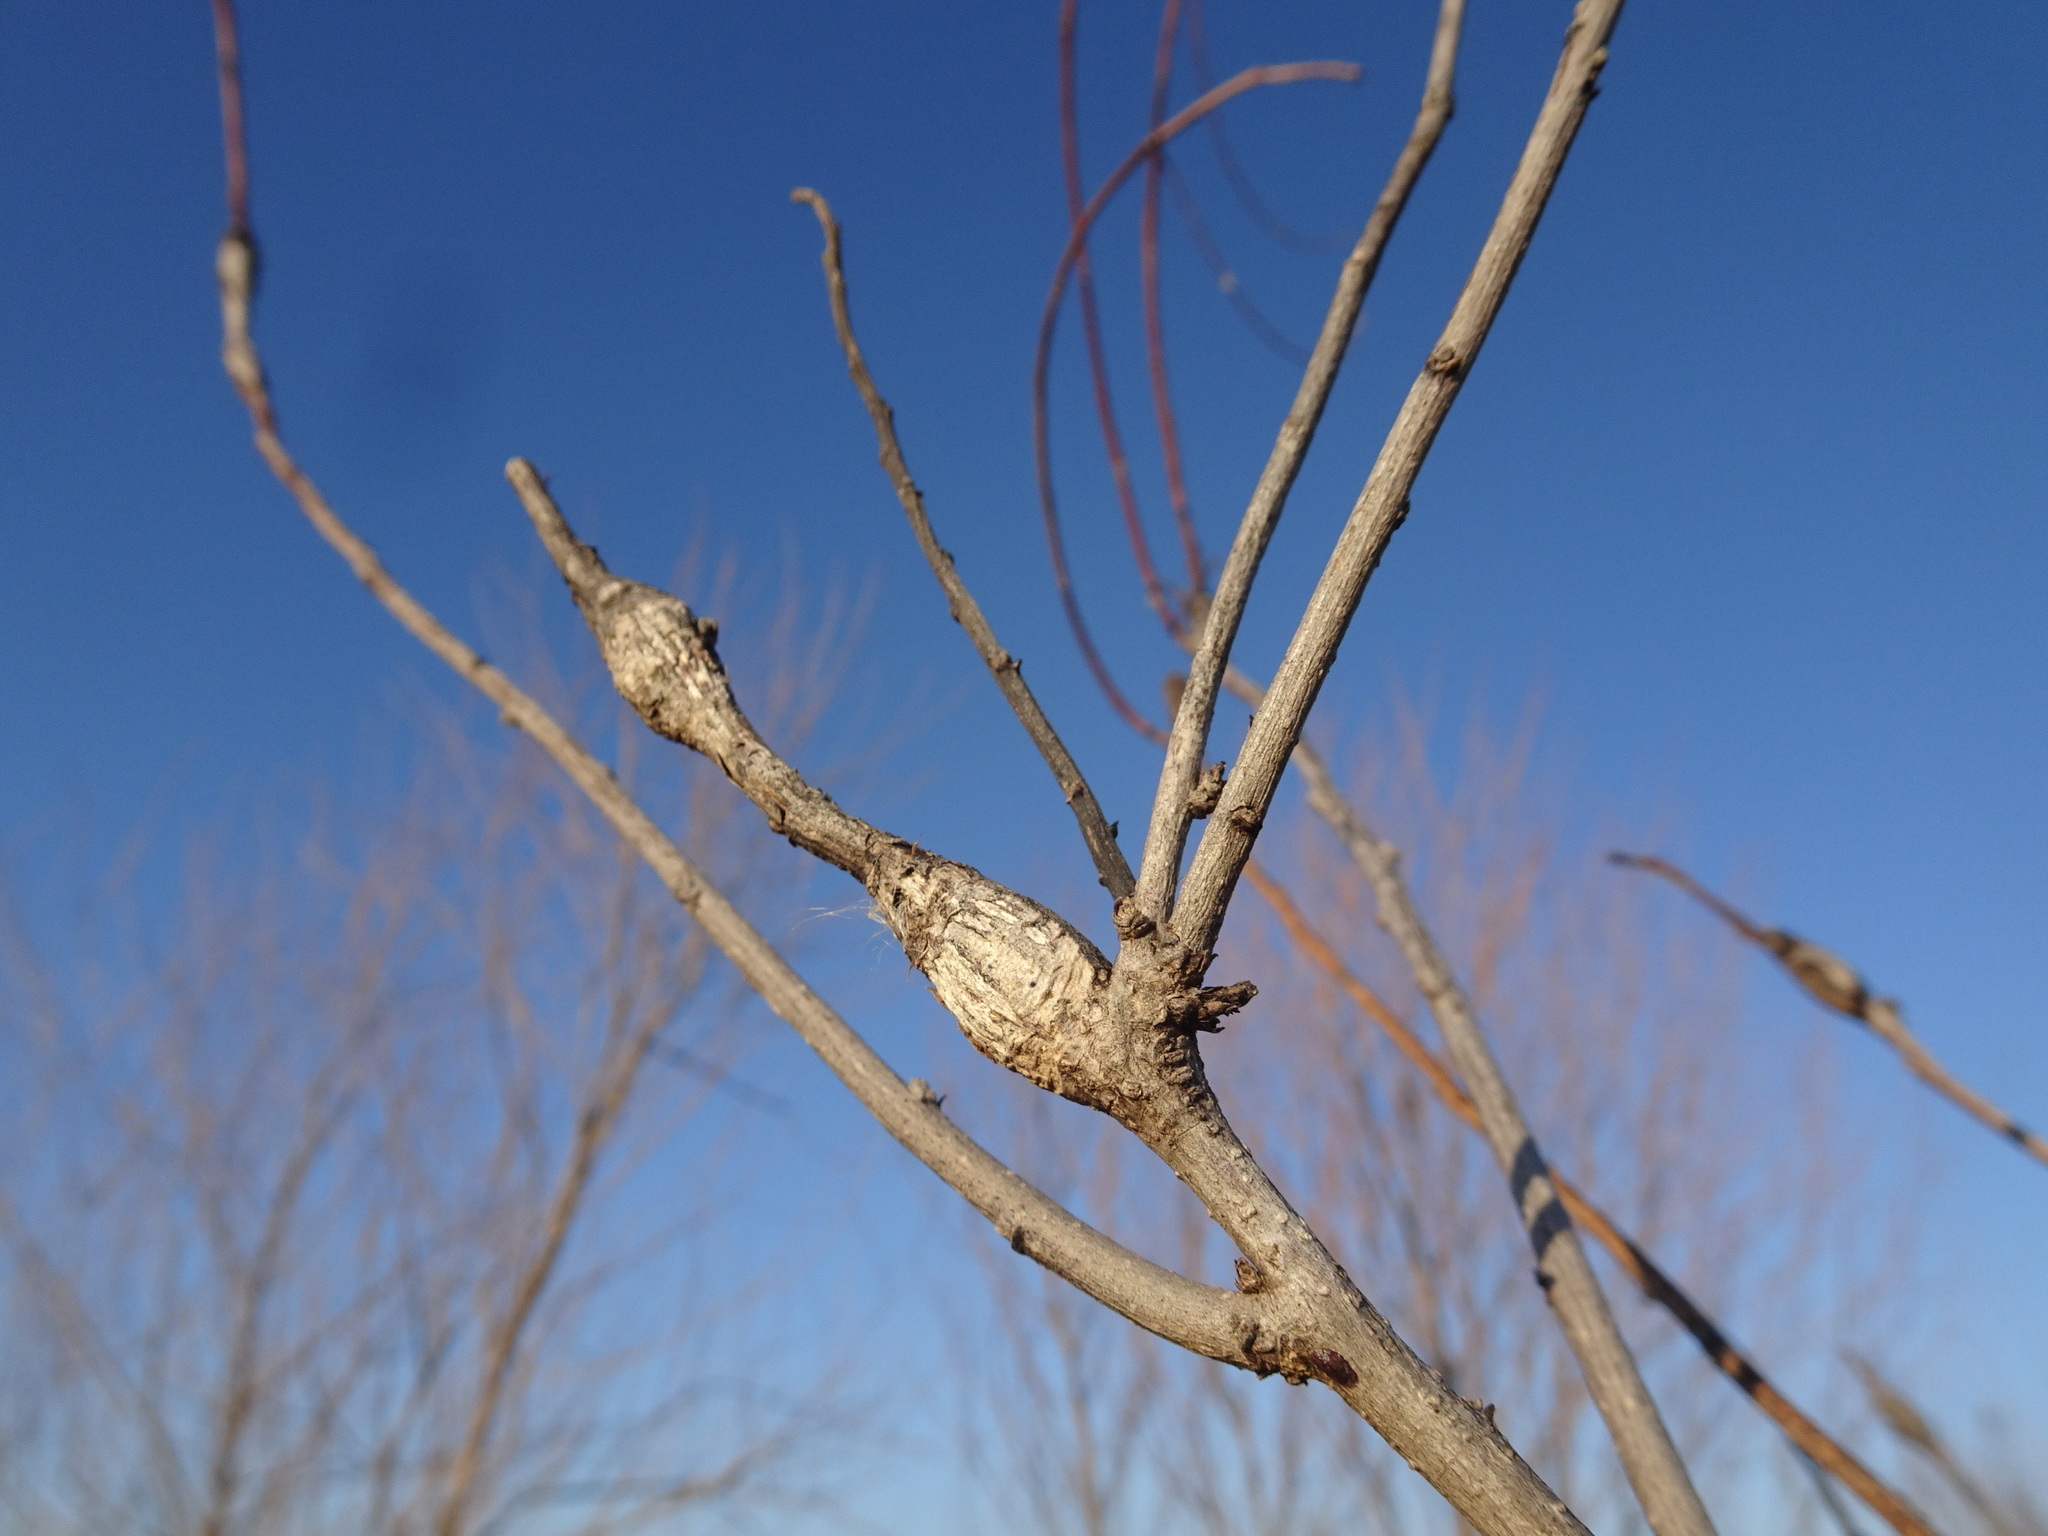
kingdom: Animalia
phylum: Arthropoda
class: Insecta
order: Lepidoptera
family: Cosmopterigidae
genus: Walshia
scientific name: Walshia amorphella
